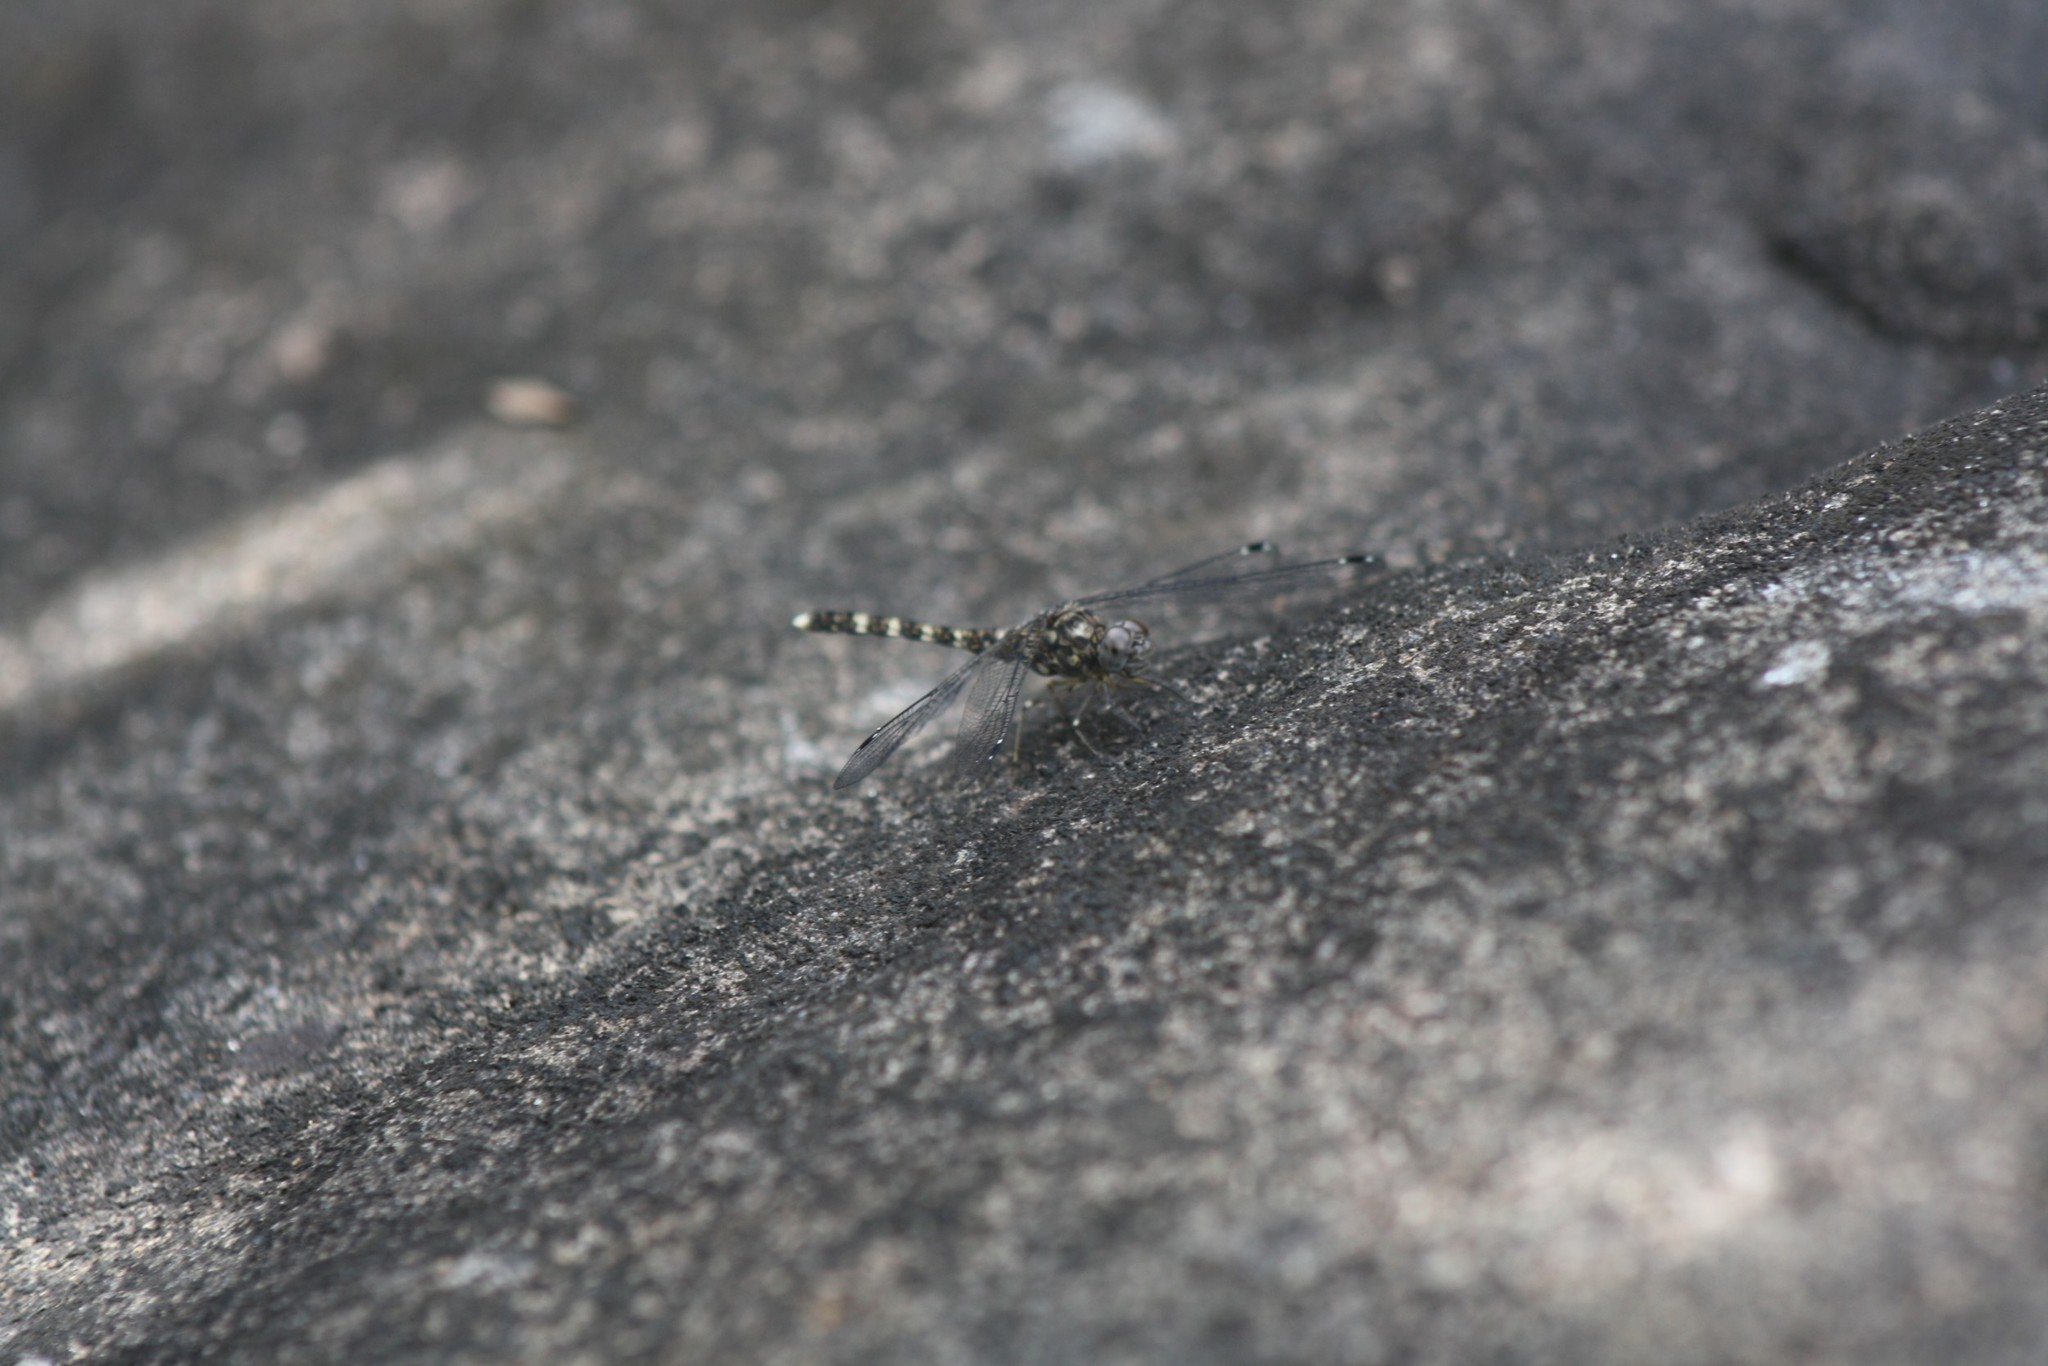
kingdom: Animalia
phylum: Arthropoda
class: Insecta
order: Odonata
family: Libellulidae
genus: Bradinopyga
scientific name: Bradinopyga geminata
